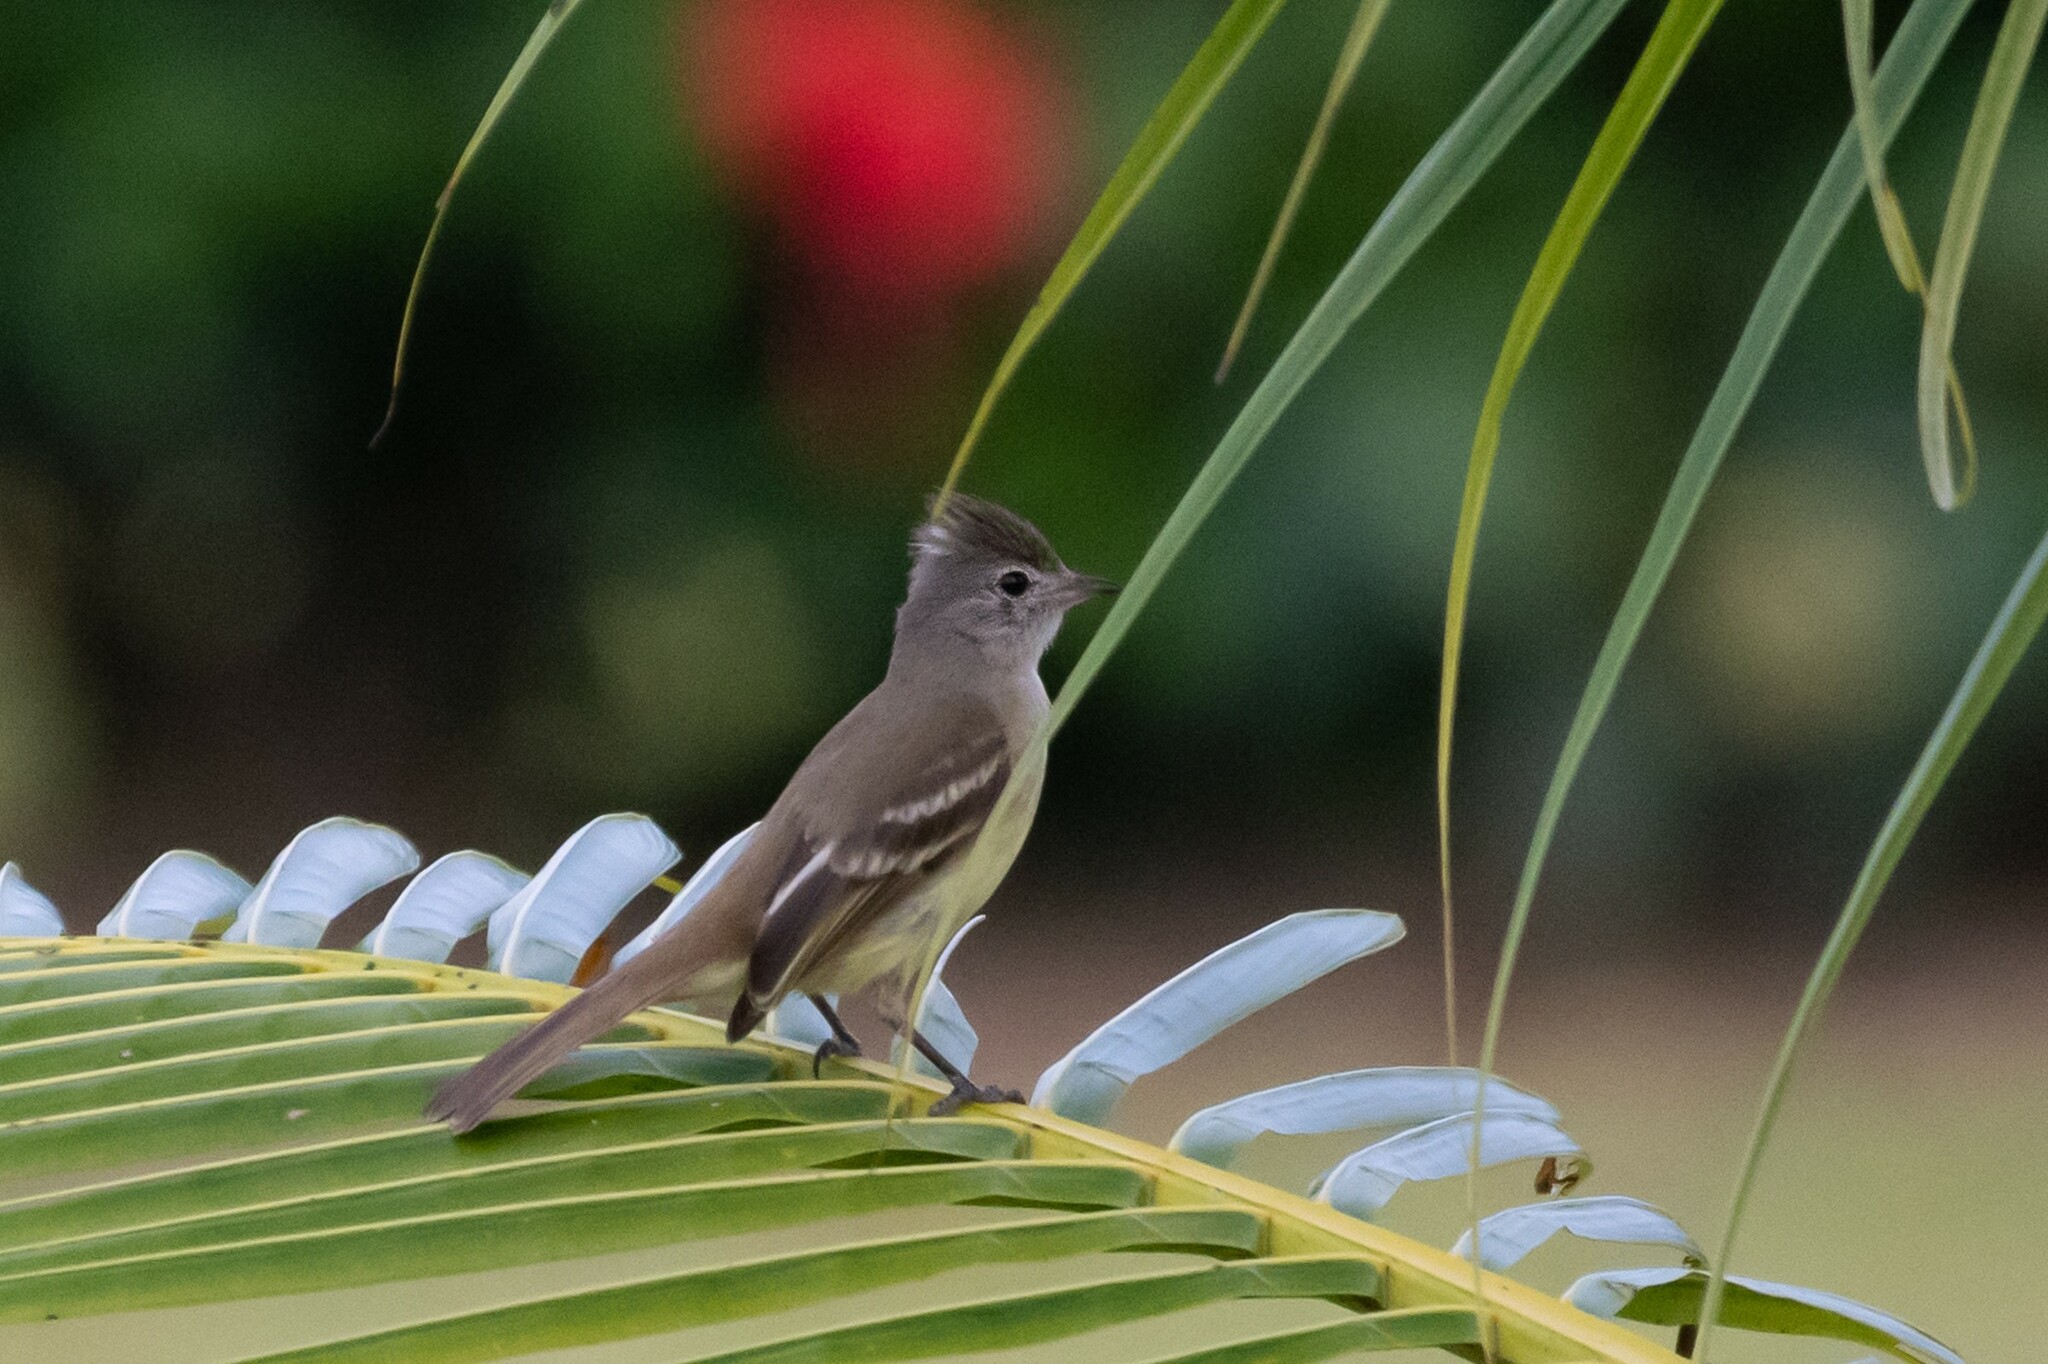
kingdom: Animalia
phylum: Chordata
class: Aves
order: Passeriformes
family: Tyrannidae
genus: Elaenia
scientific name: Elaenia flavogaster
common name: Yellow-bellied elaenia
